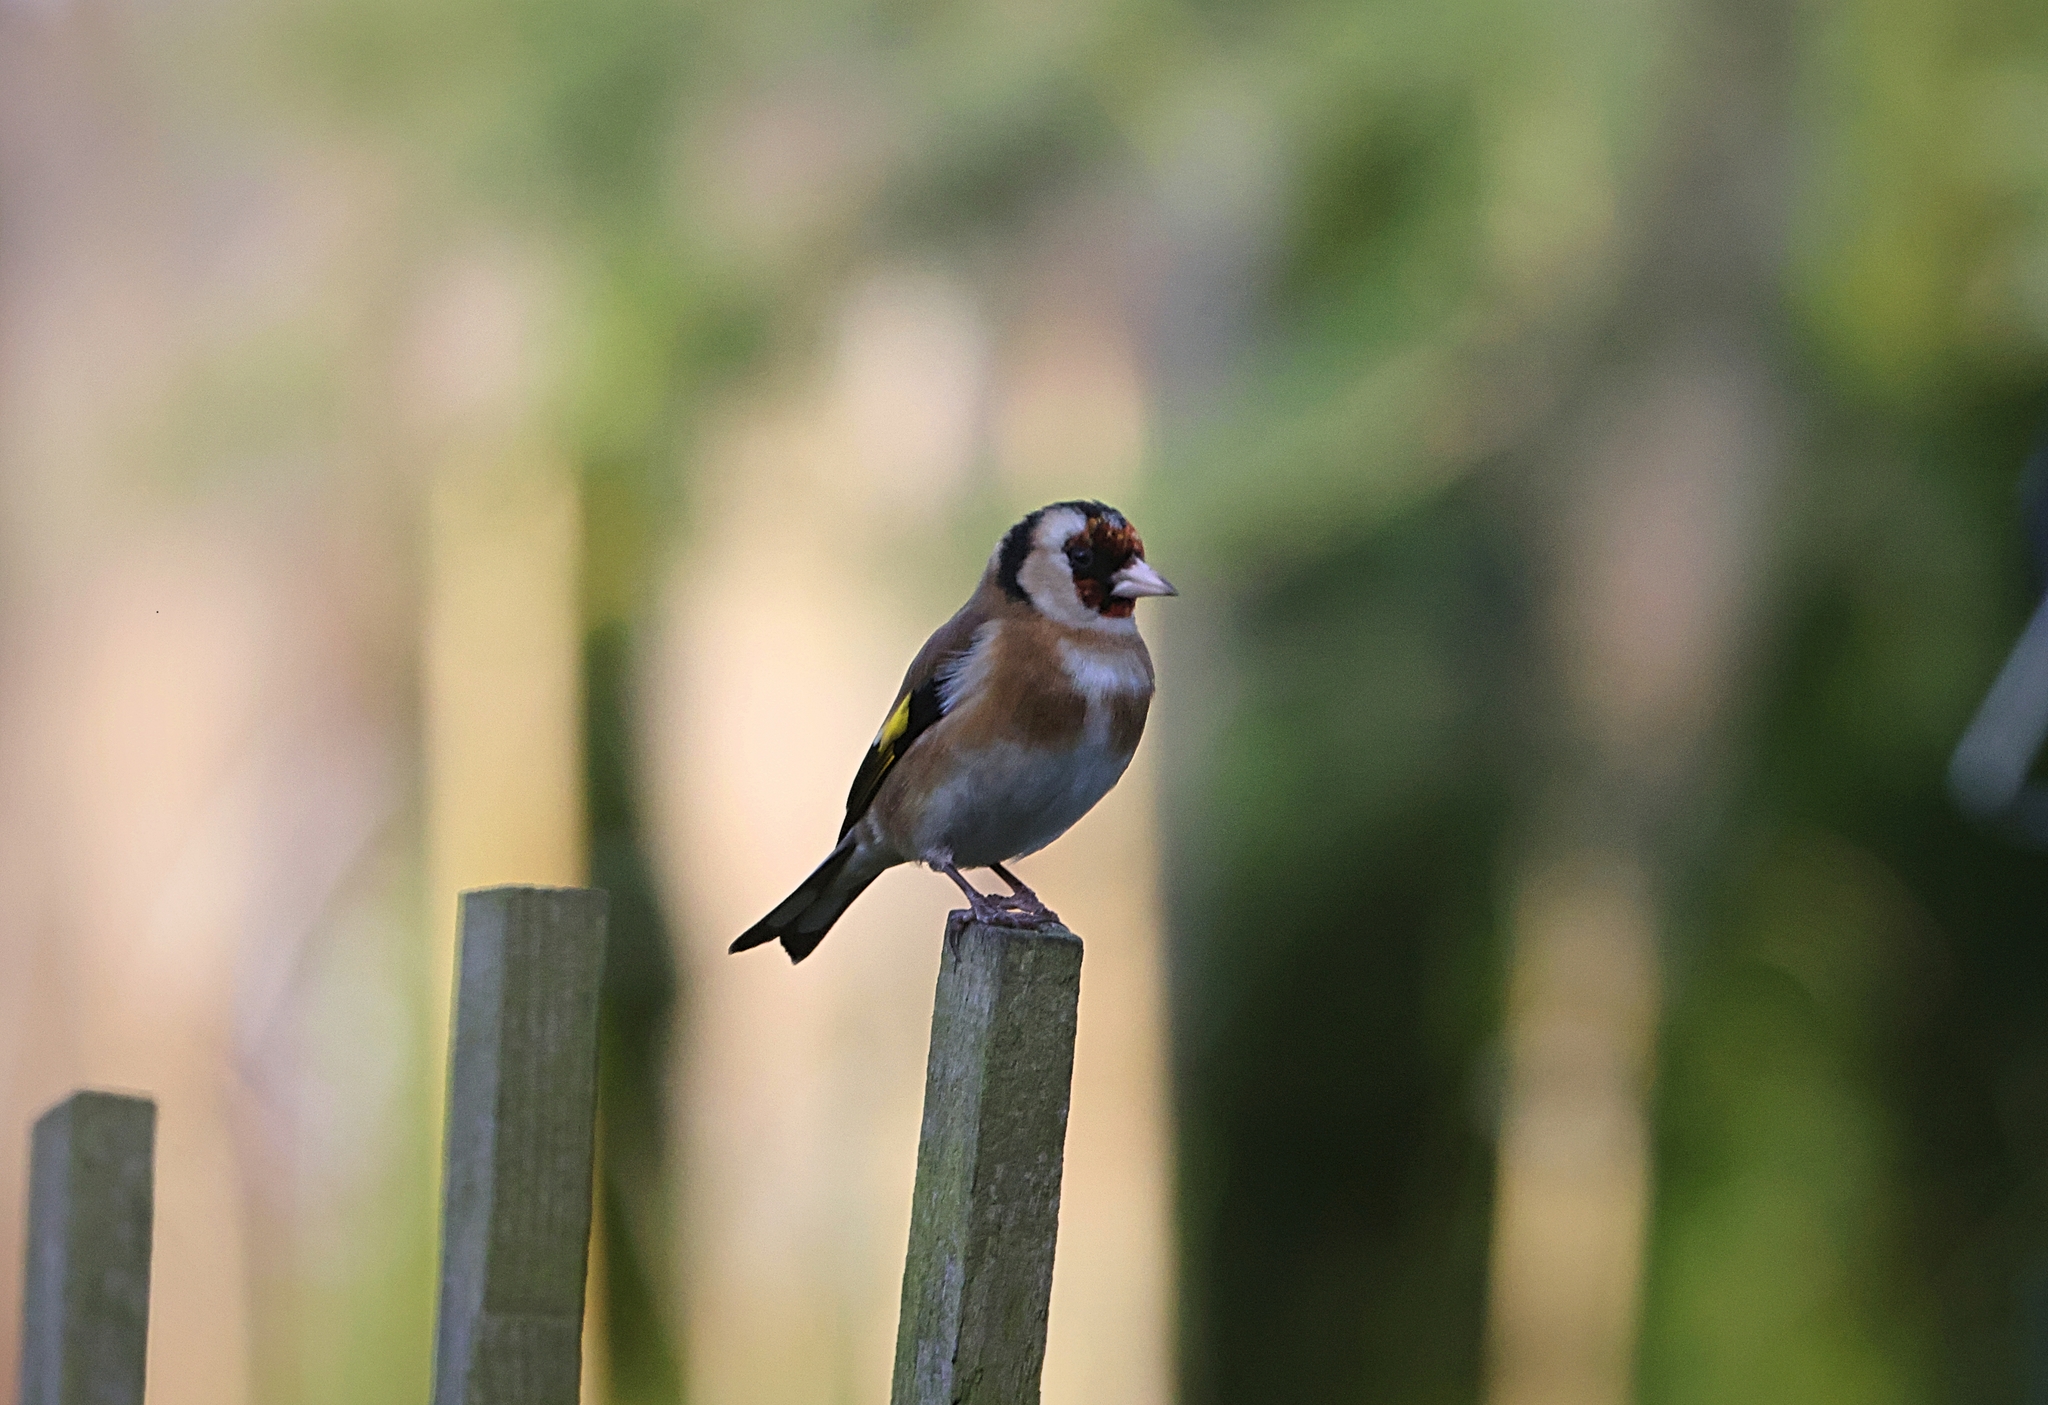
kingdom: Animalia
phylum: Chordata
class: Aves
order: Passeriformes
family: Fringillidae
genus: Carduelis
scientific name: Carduelis carduelis
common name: European goldfinch
